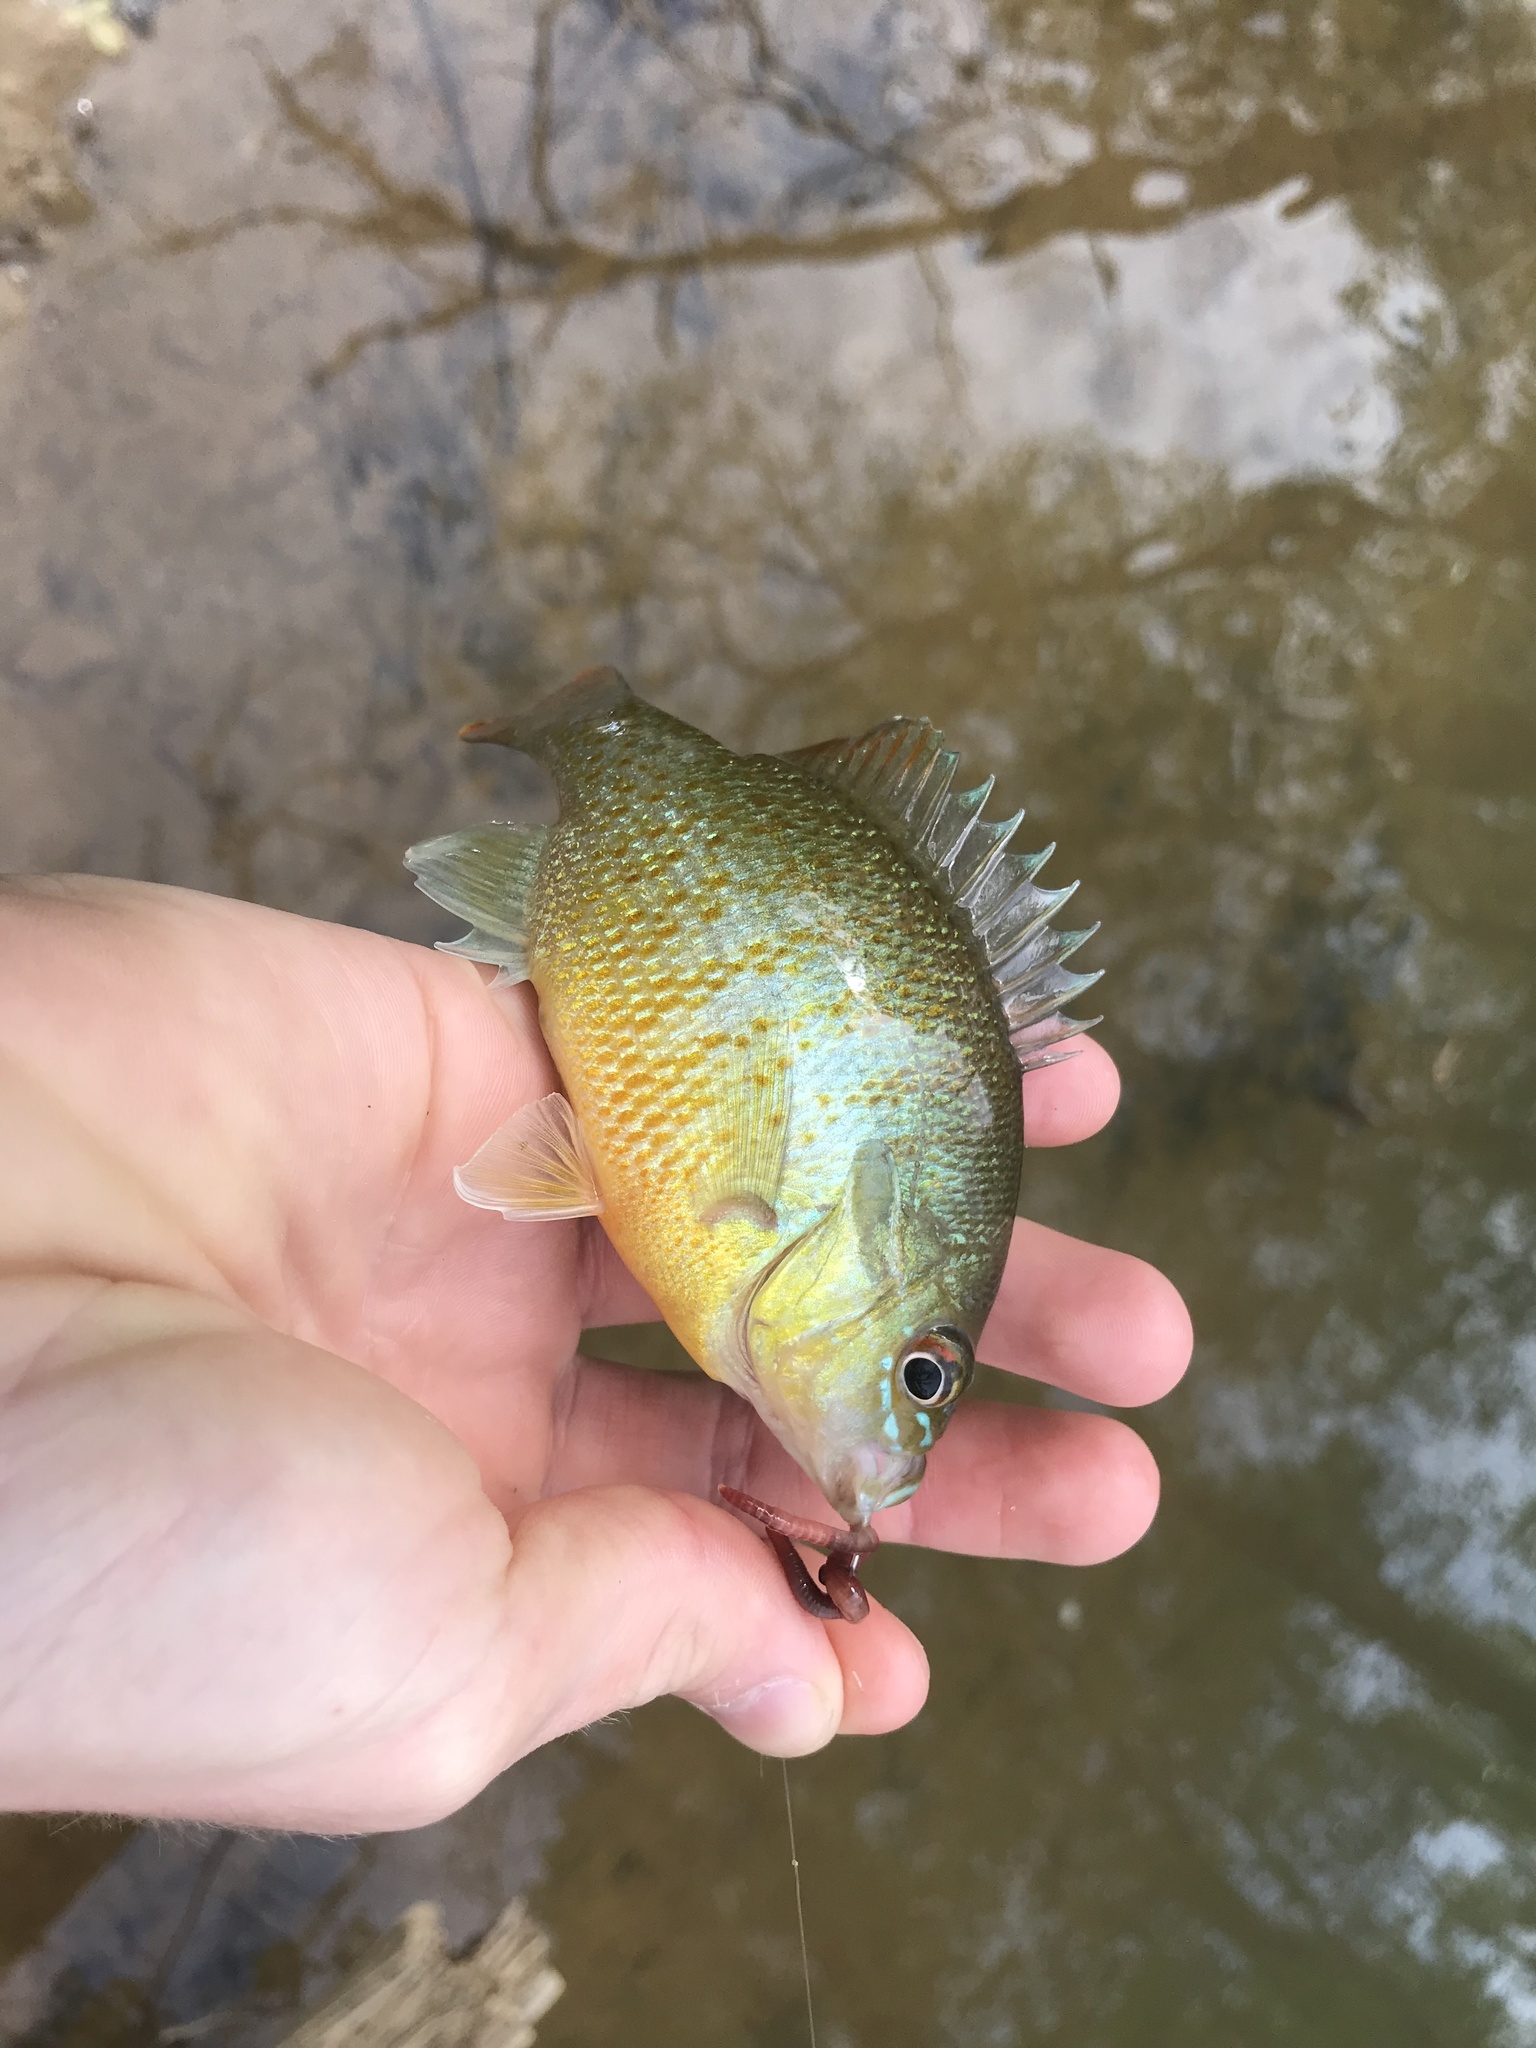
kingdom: Animalia
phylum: Chordata
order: Perciformes
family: Centrarchidae
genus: Lepomis
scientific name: Lepomis auritus
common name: Redbreast sunfish
